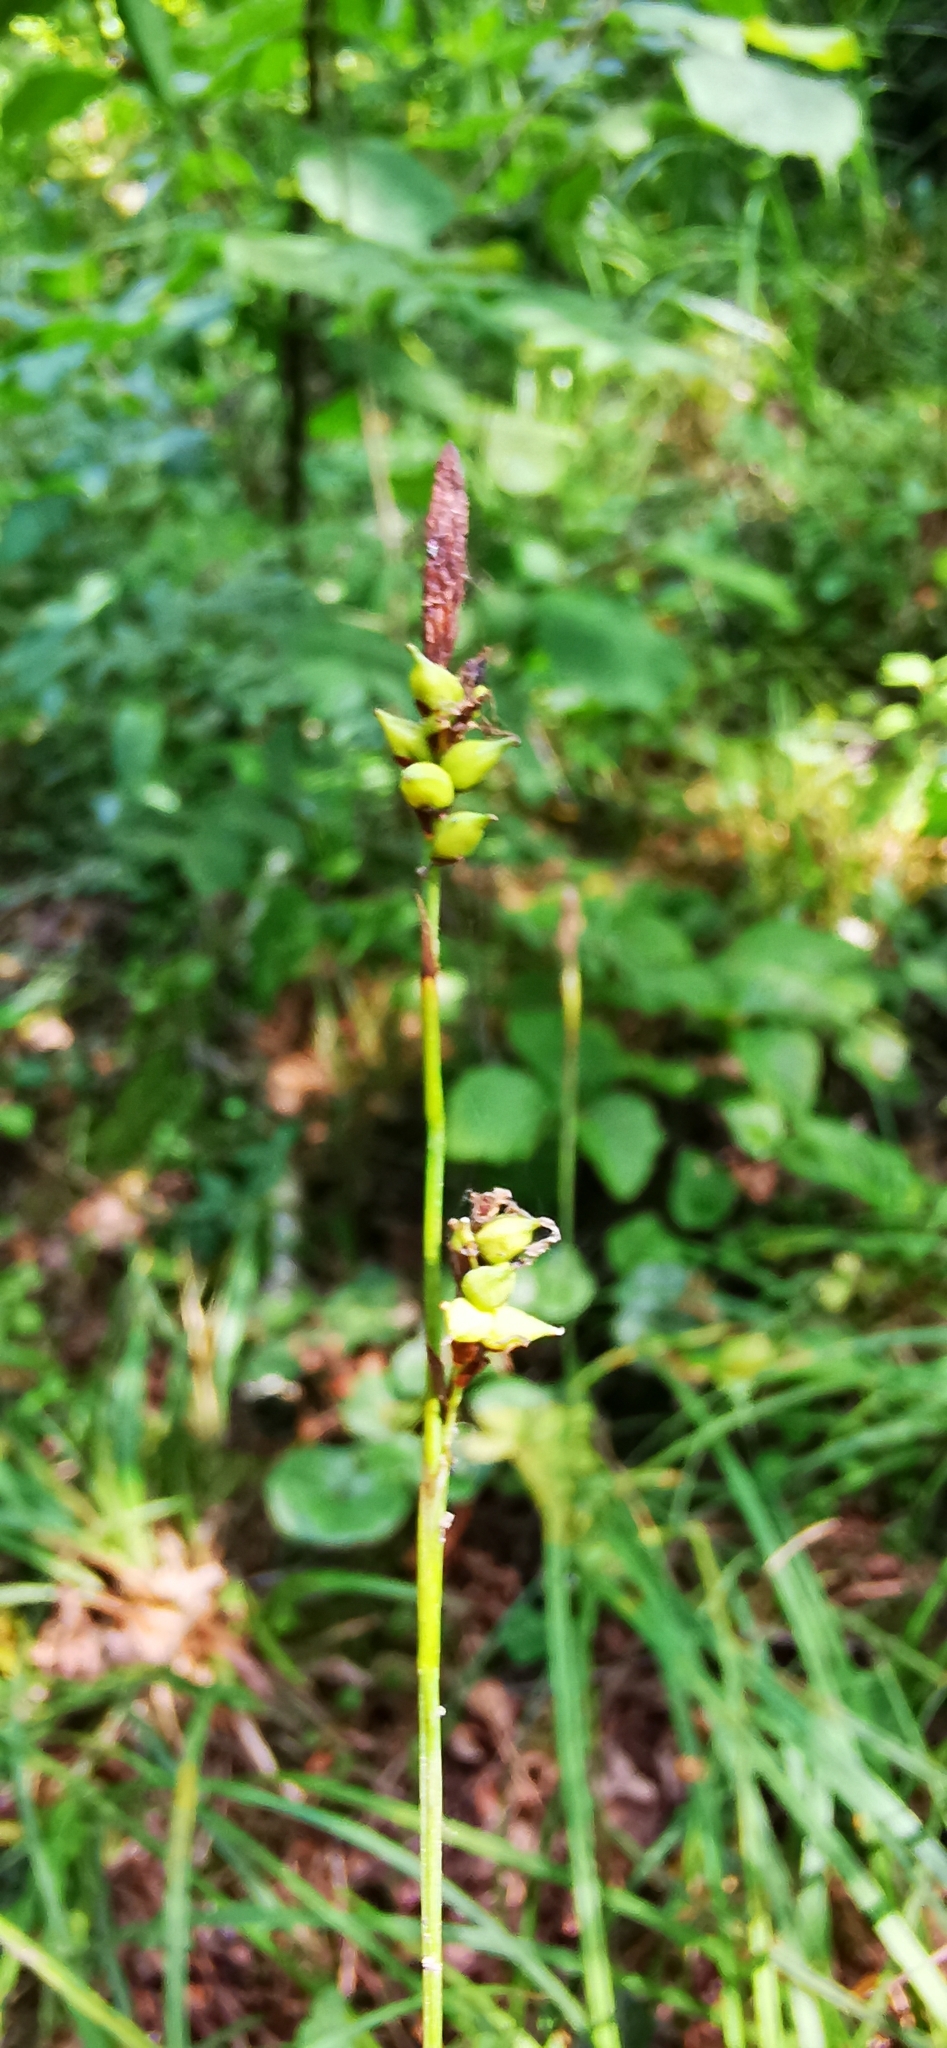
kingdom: Plantae
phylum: Tracheophyta
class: Liliopsida
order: Poales
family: Cyperaceae
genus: Carex
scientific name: Carex vaginata
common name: Sheathed sedge
